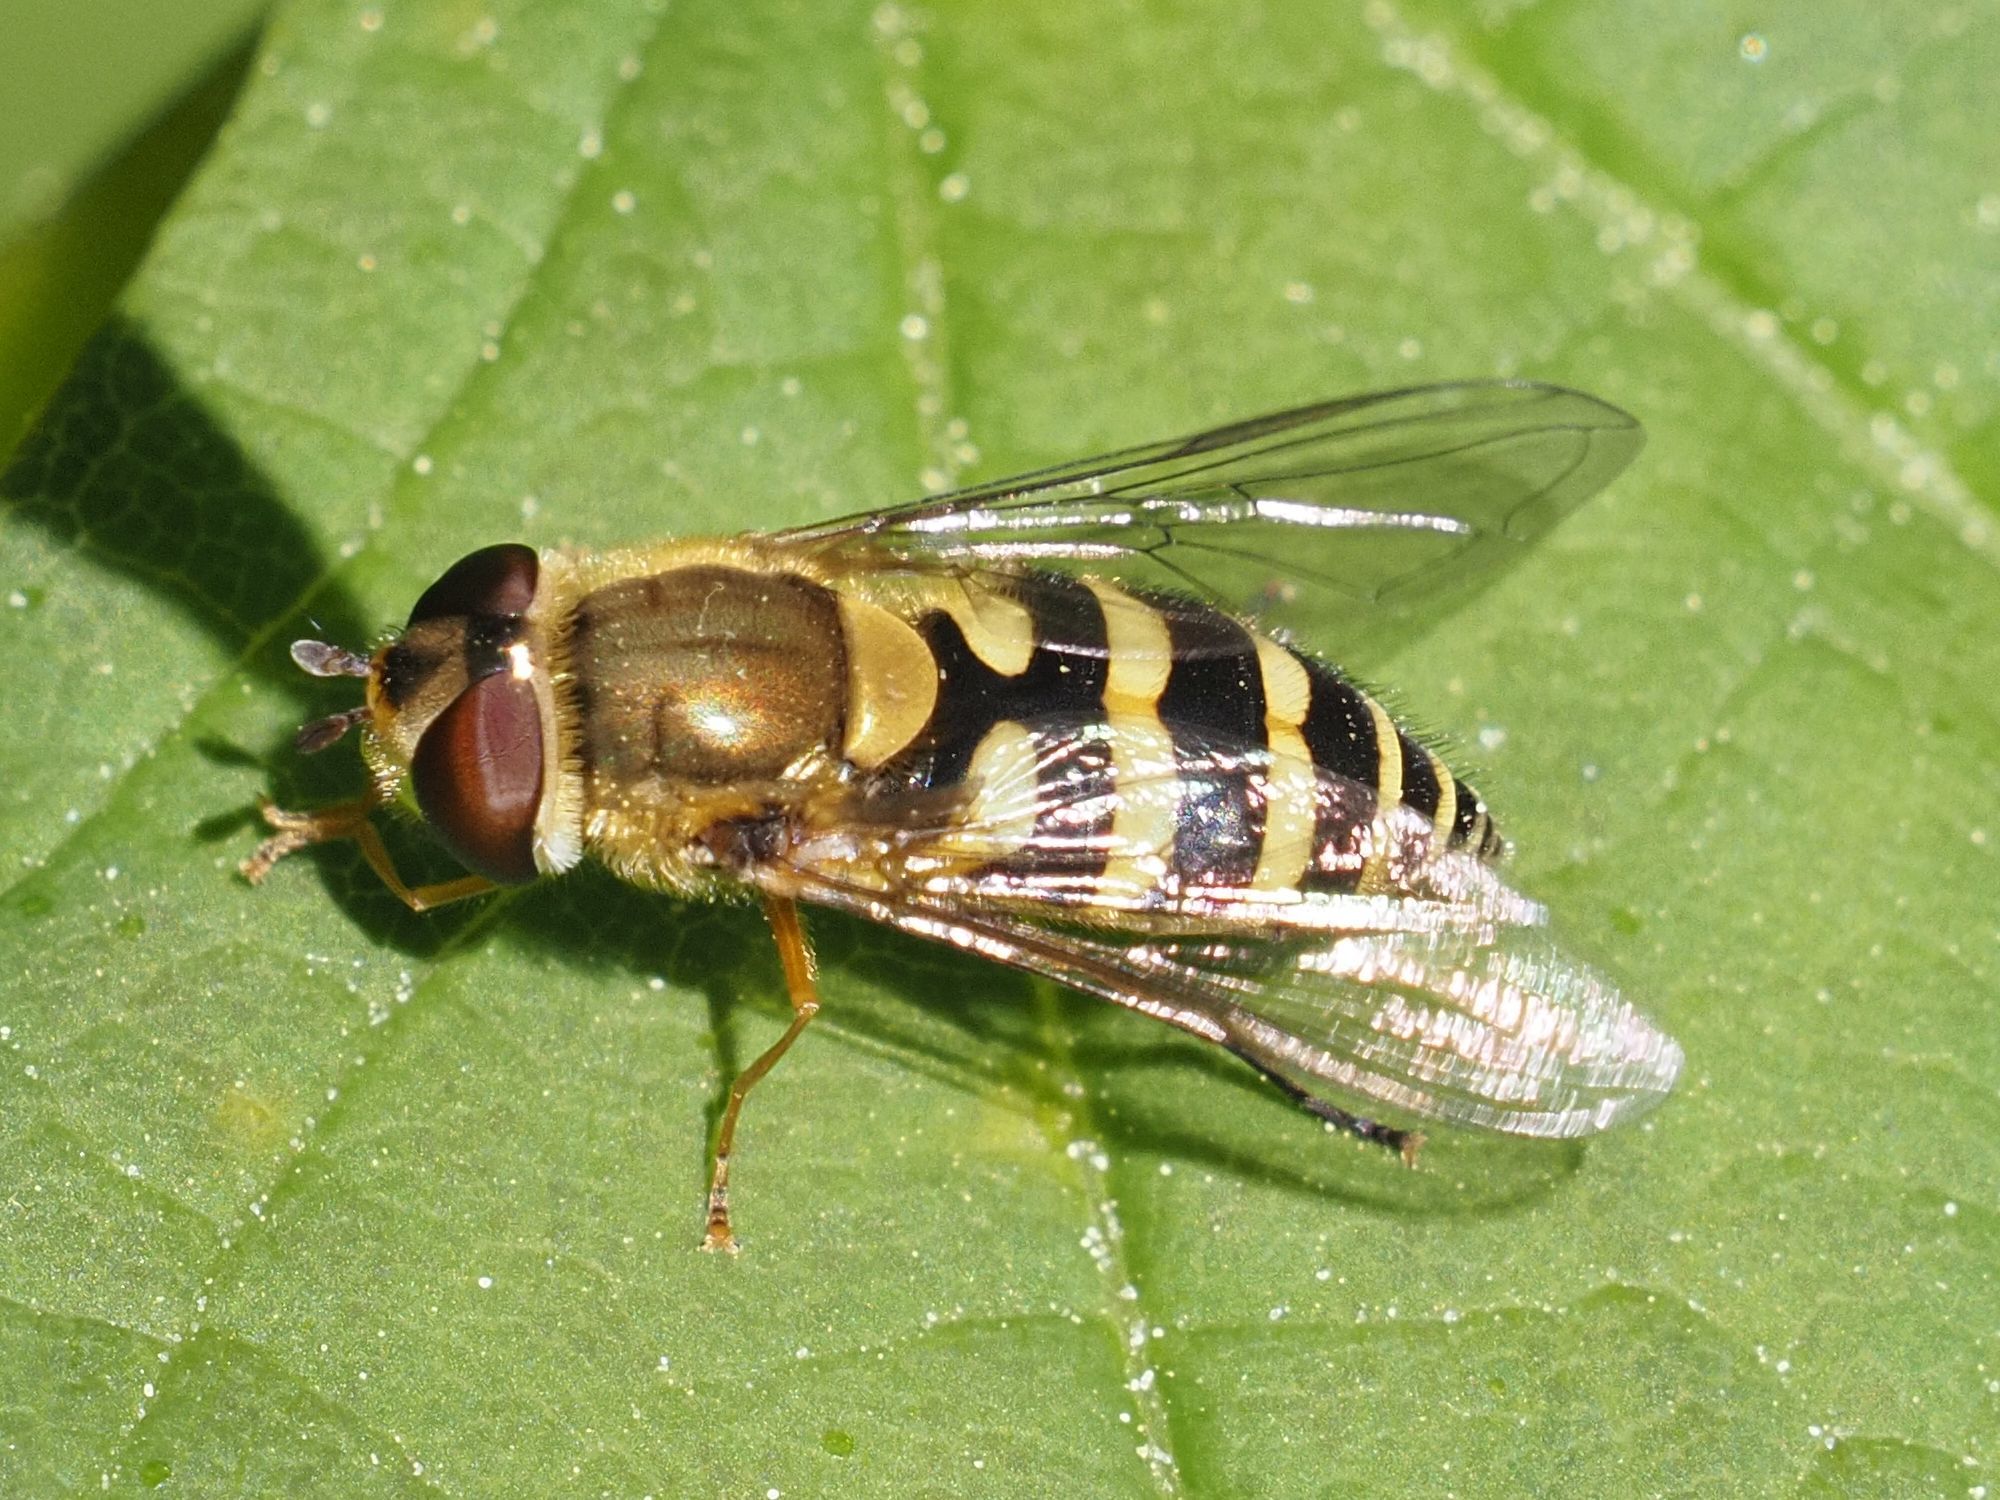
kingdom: Animalia
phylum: Arthropoda
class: Insecta
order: Diptera
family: Syrphidae
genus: Syrphus
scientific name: Syrphus
